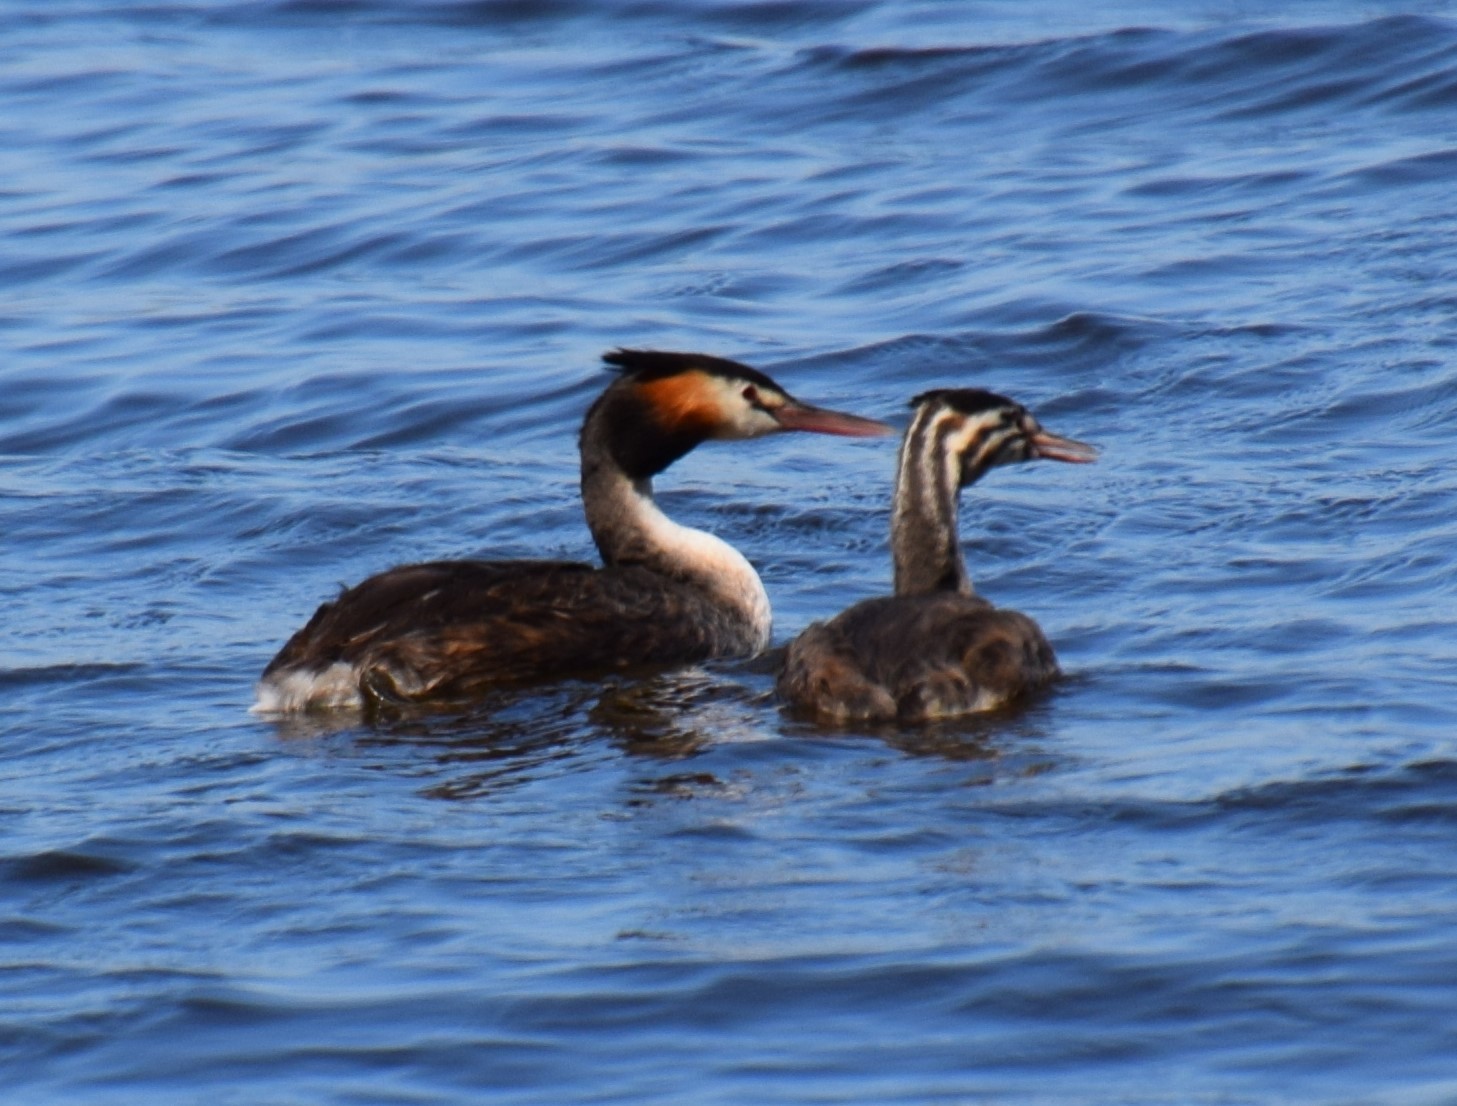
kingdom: Animalia
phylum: Chordata
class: Aves
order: Podicipediformes
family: Podicipedidae
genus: Podiceps
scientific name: Podiceps cristatus
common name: Great crested grebe
